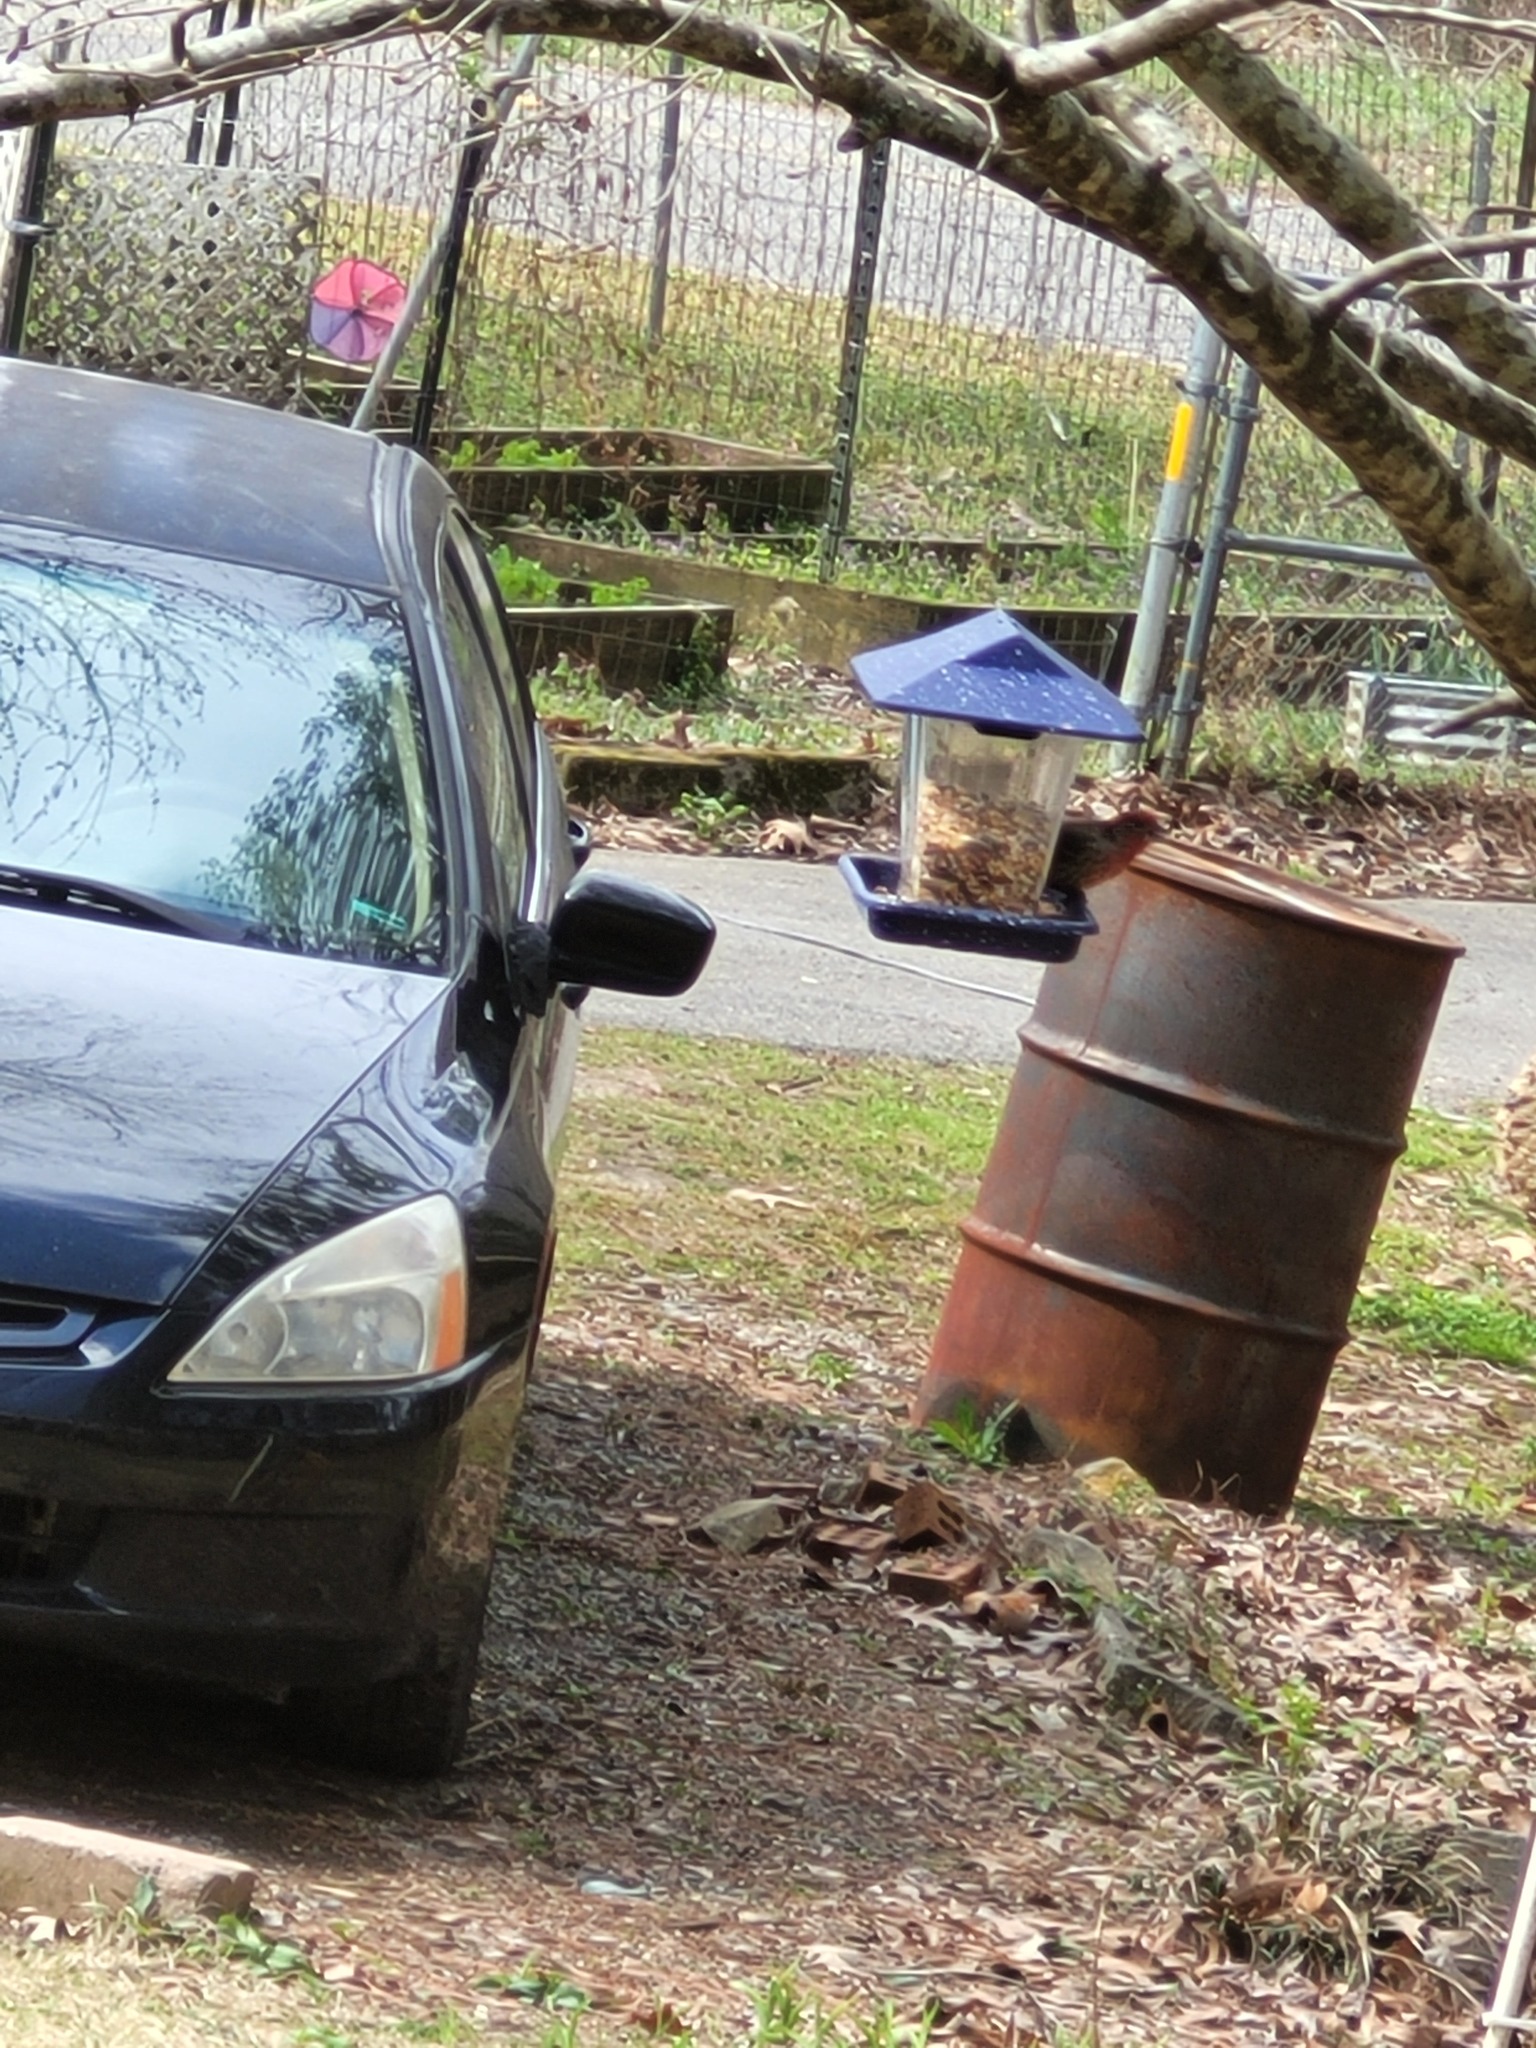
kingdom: Animalia
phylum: Chordata
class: Aves
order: Passeriformes
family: Fringillidae
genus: Haemorhous
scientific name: Haemorhous mexicanus
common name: House finch
